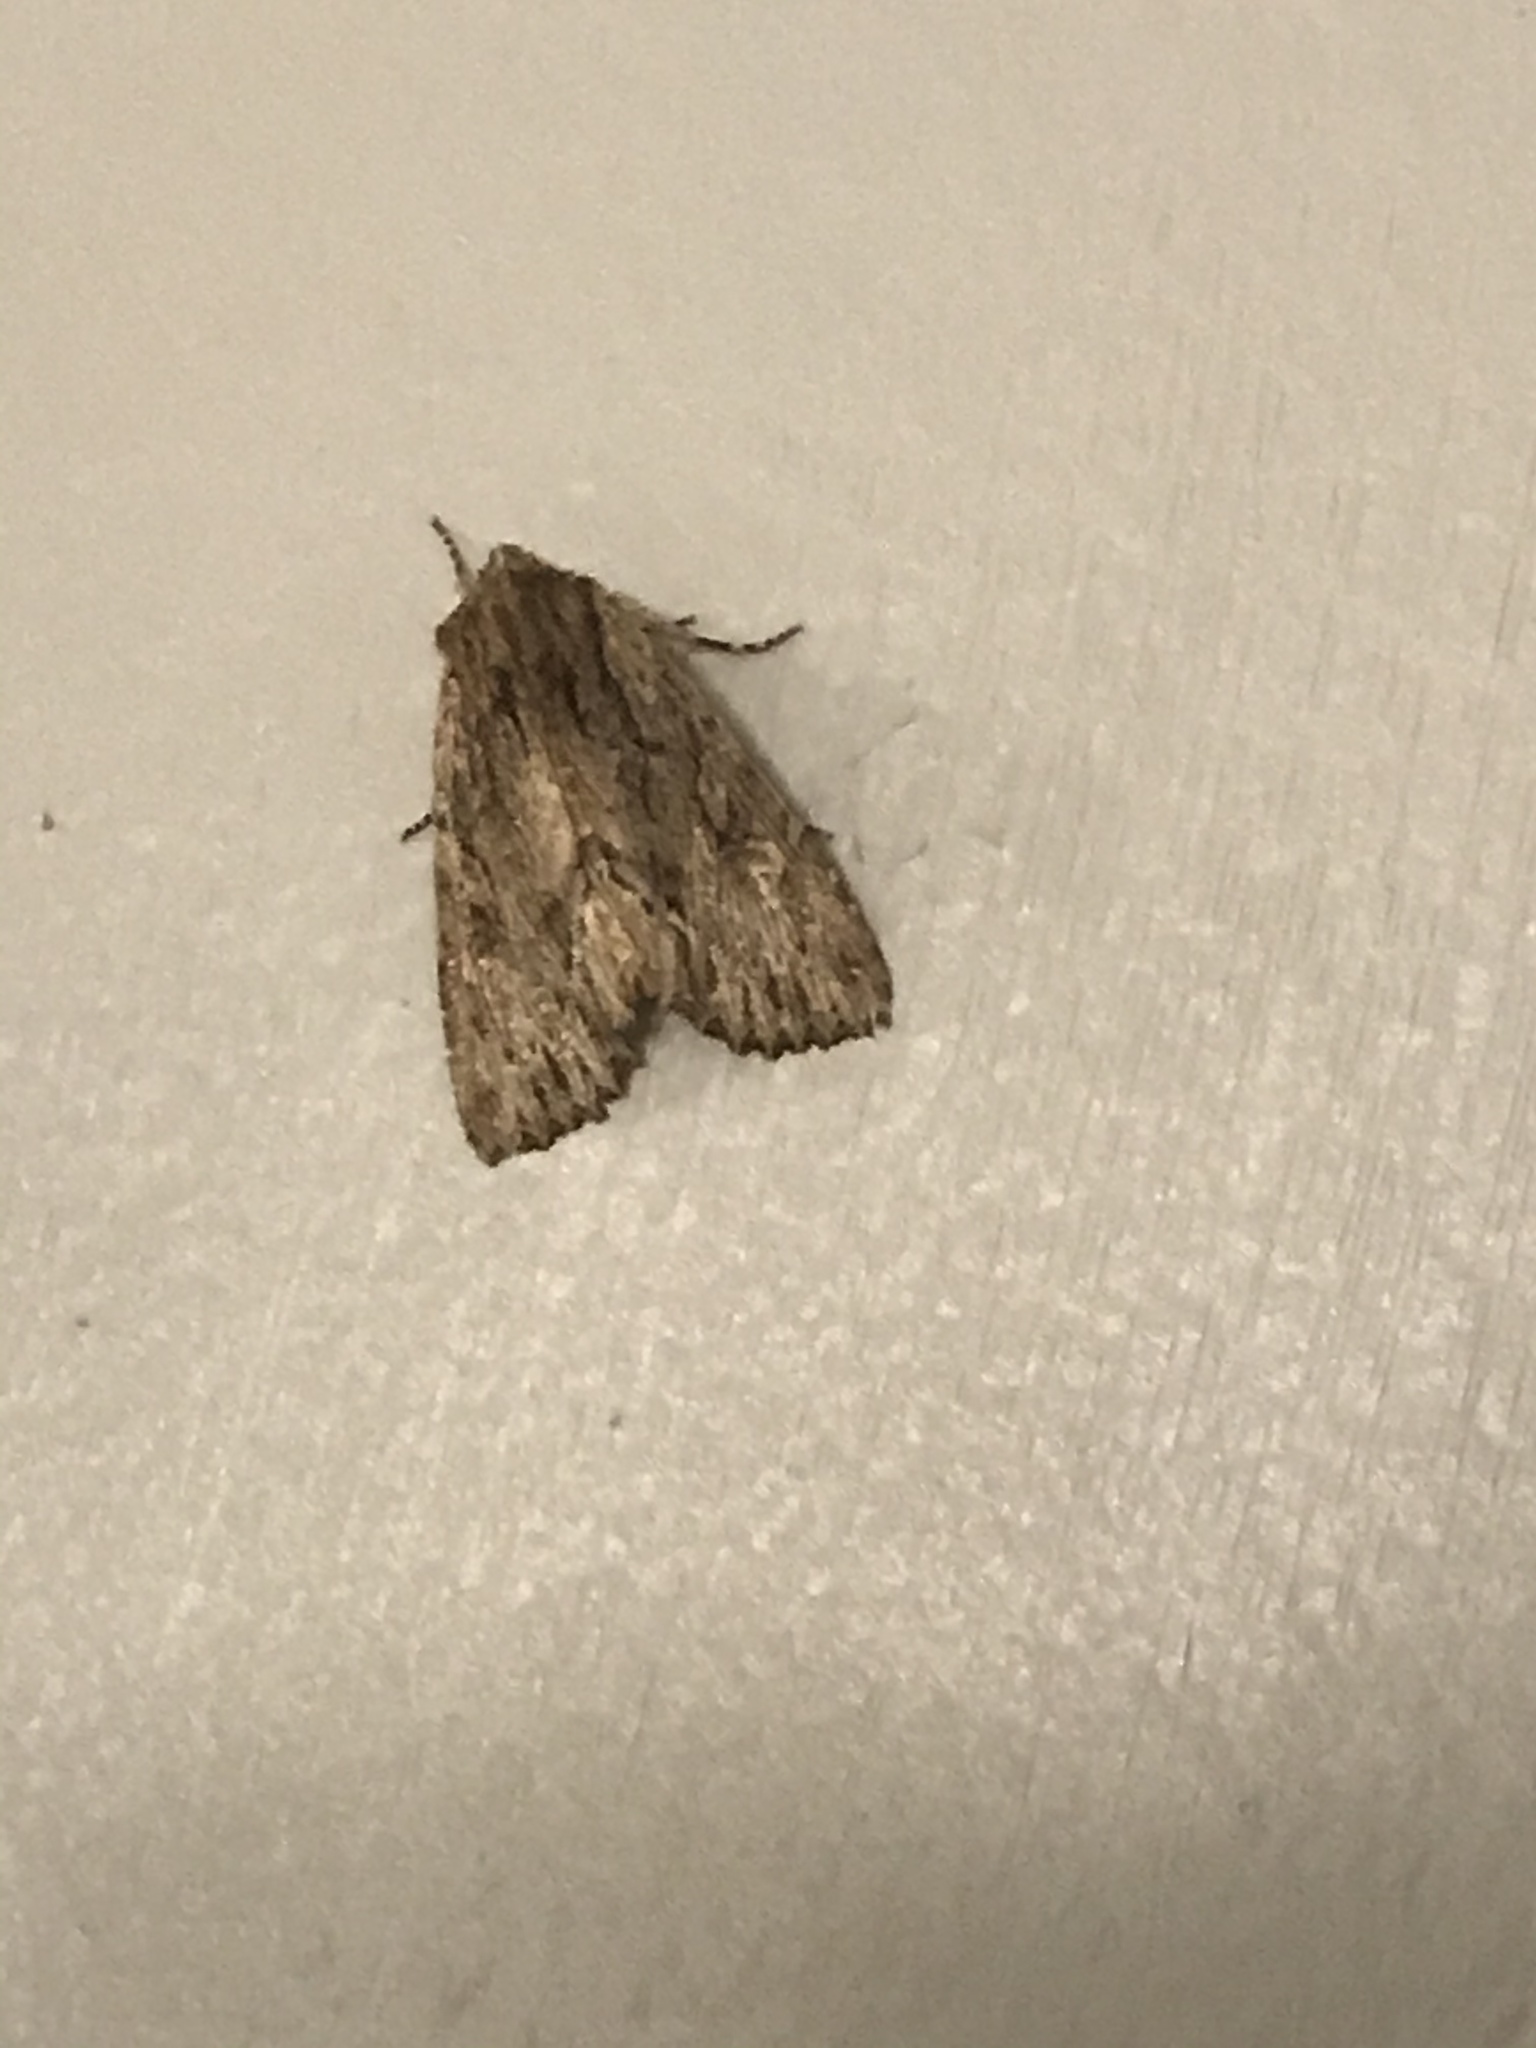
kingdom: Animalia
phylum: Arthropoda
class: Insecta
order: Lepidoptera
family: Noctuidae
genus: Achatia
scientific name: Achatia confusa
